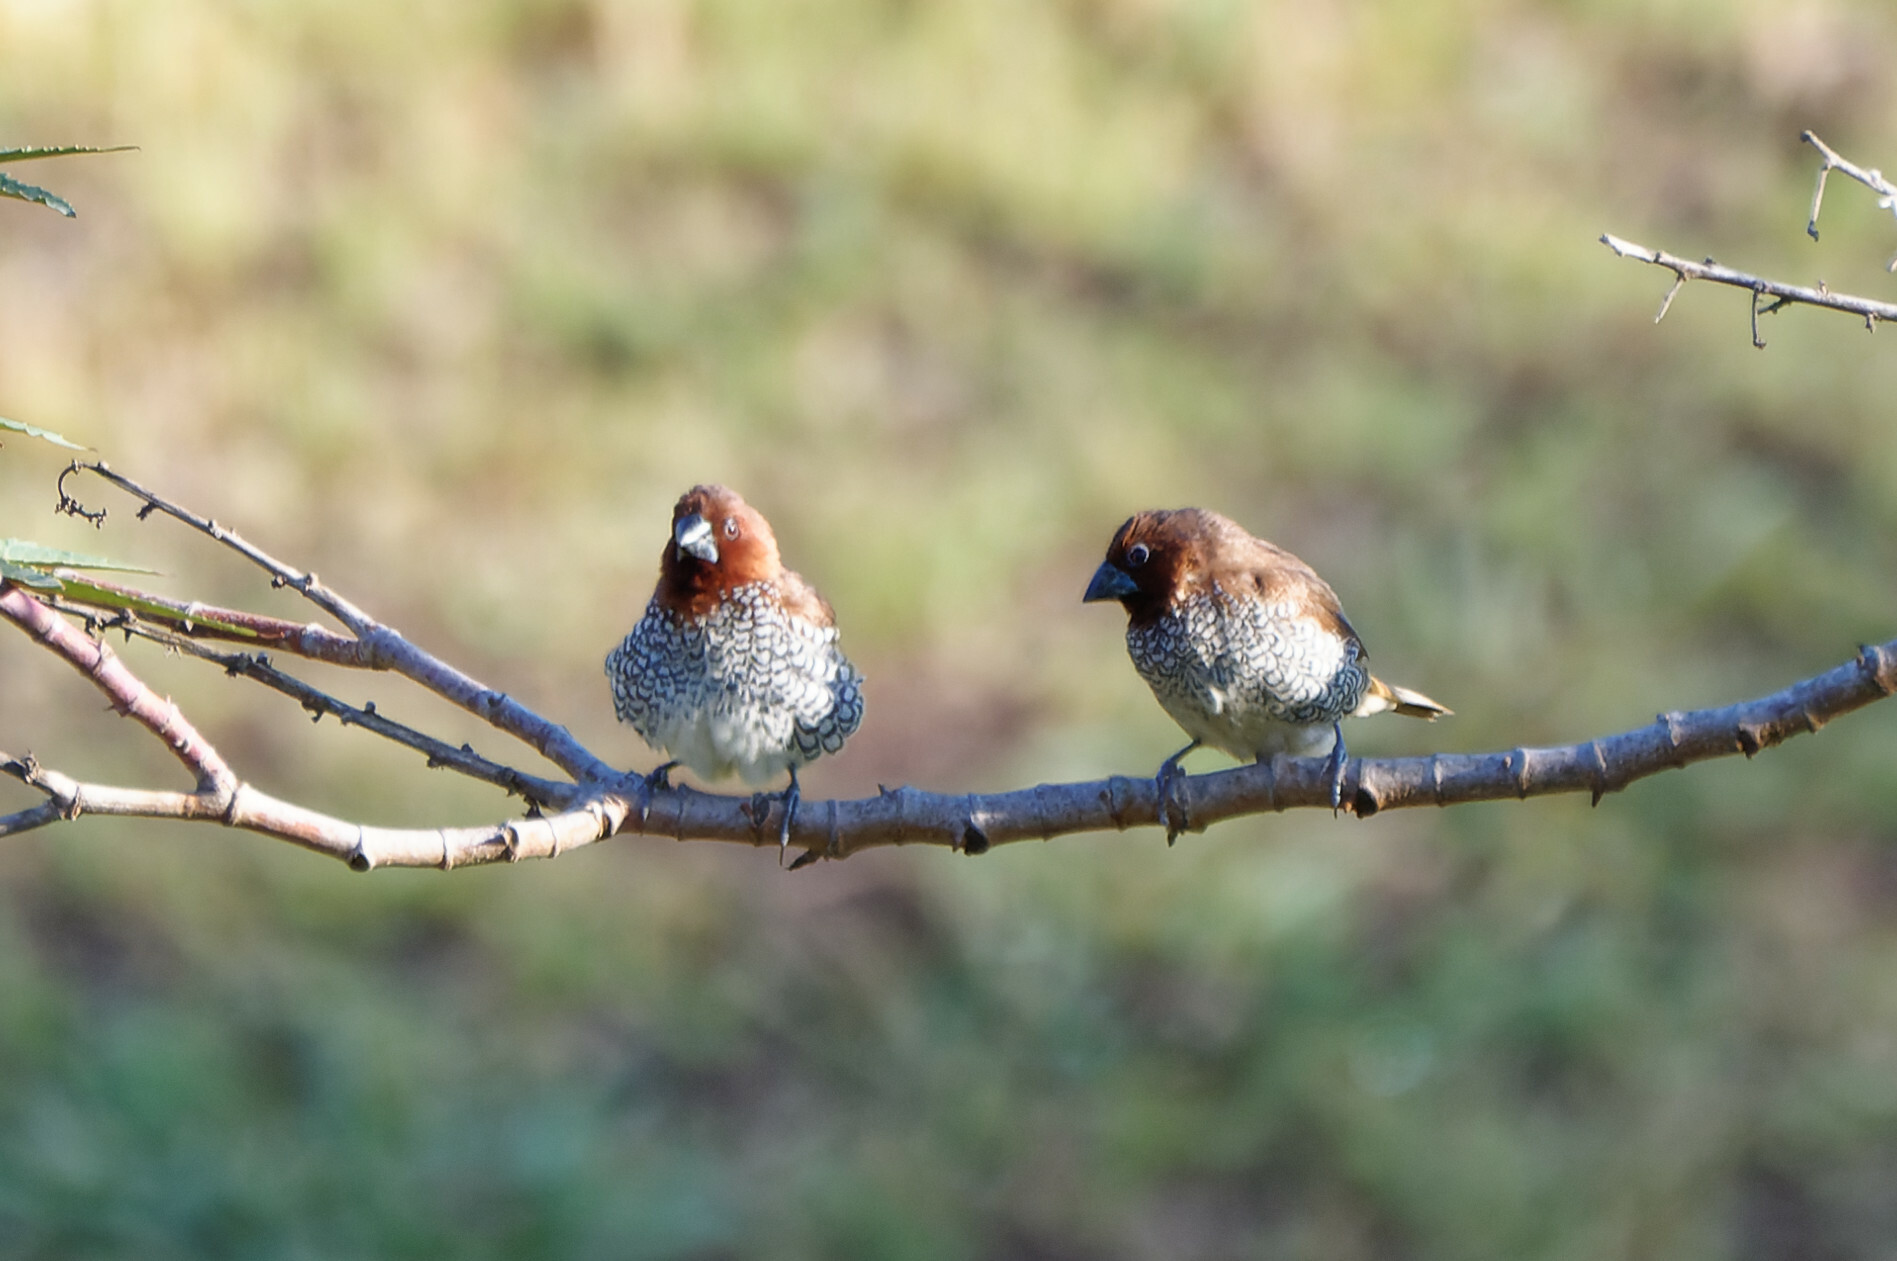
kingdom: Animalia
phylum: Chordata
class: Aves
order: Passeriformes
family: Estrildidae
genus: Lonchura
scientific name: Lonchura punctulata
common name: Scaly-breasted munia
